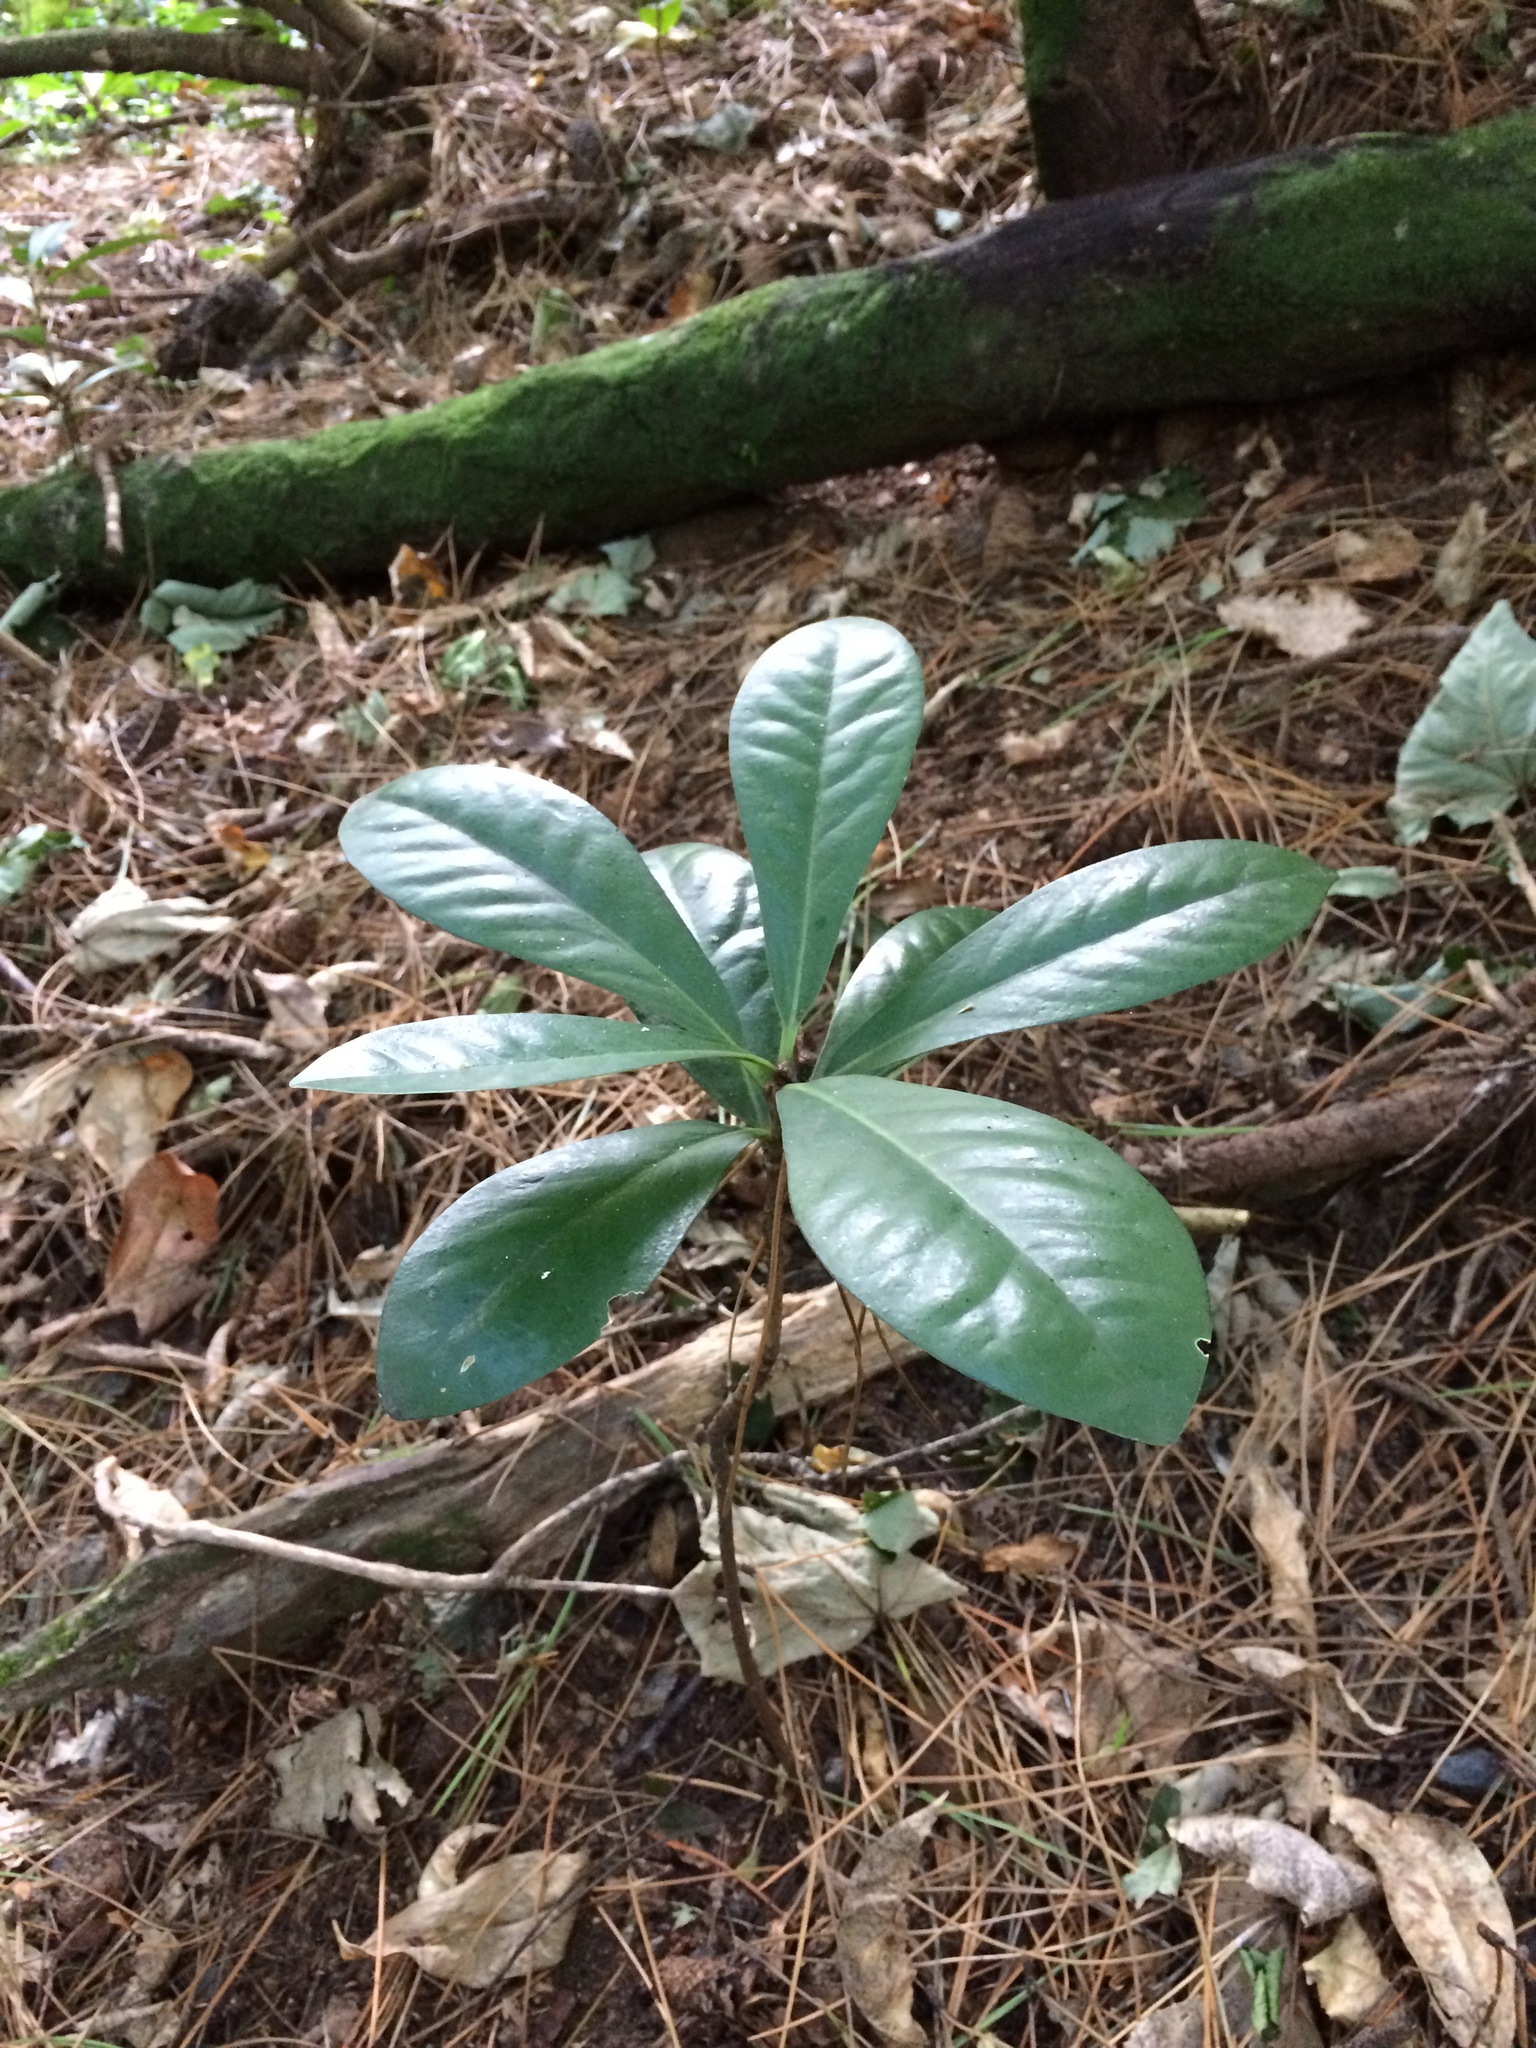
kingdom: Plantae
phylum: Tracheophyta
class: Magnoliopsida
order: Cucurbitales
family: Corynocarpaceae
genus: Corynocarpus
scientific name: Corynocarpus laevigatus
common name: New zealand laurel
